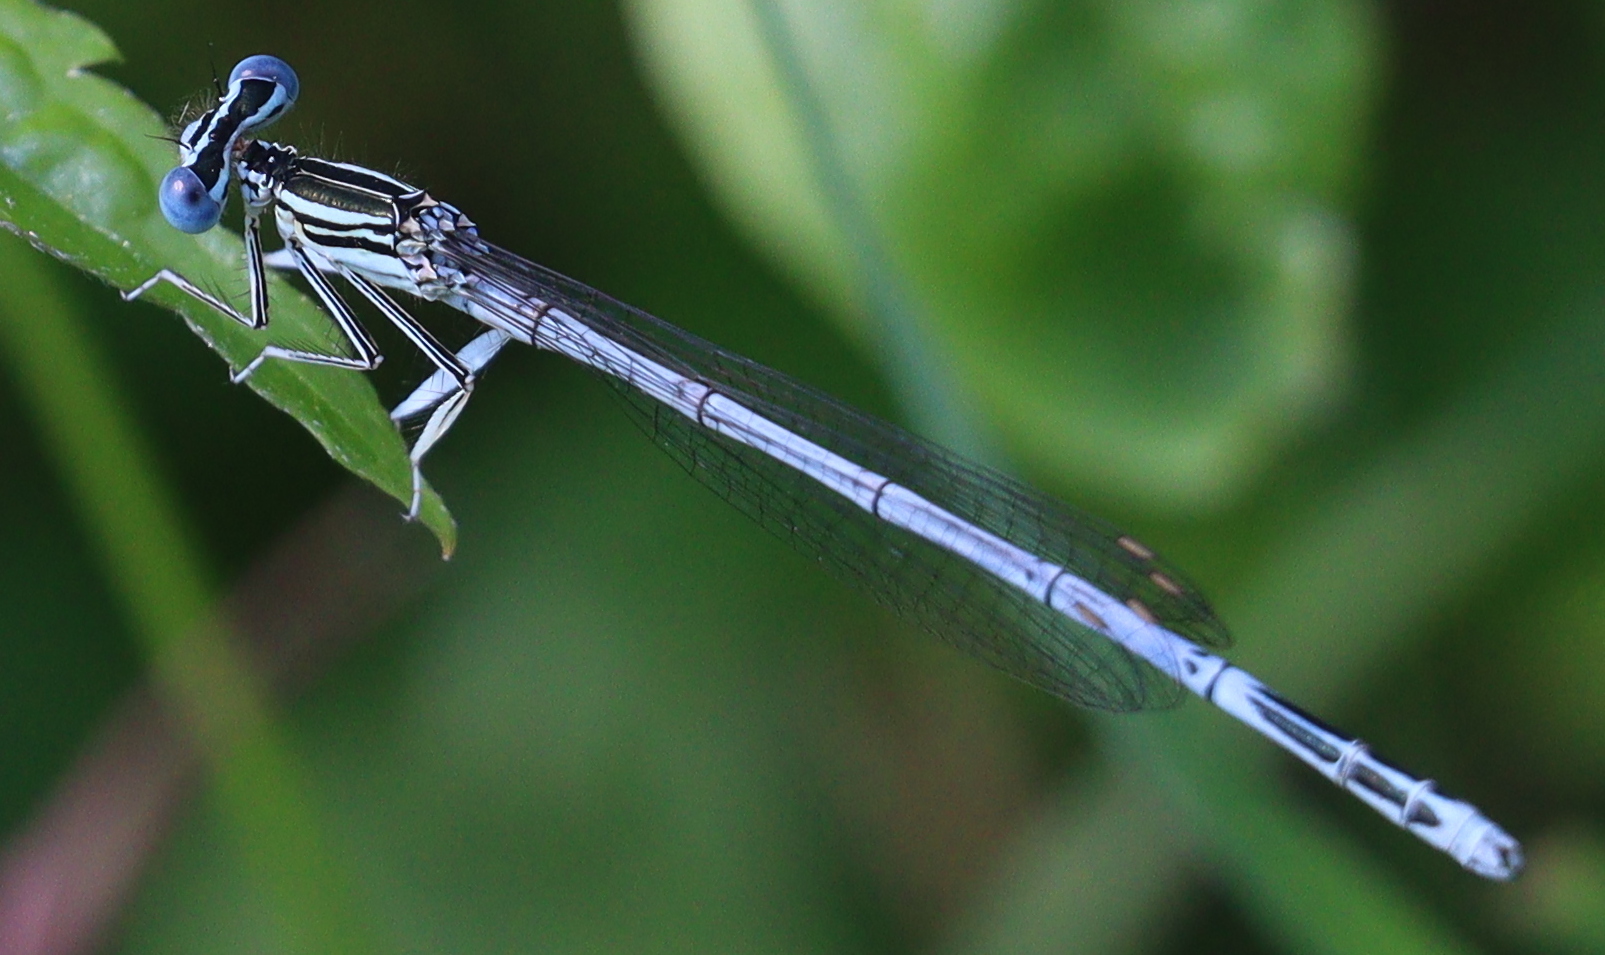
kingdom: Animalia
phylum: Arthropoda
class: Insecta
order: Odonata
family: Platycnemididae
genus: Platycnemis
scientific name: Platycnemis pennipes
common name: White-legged damselfly
